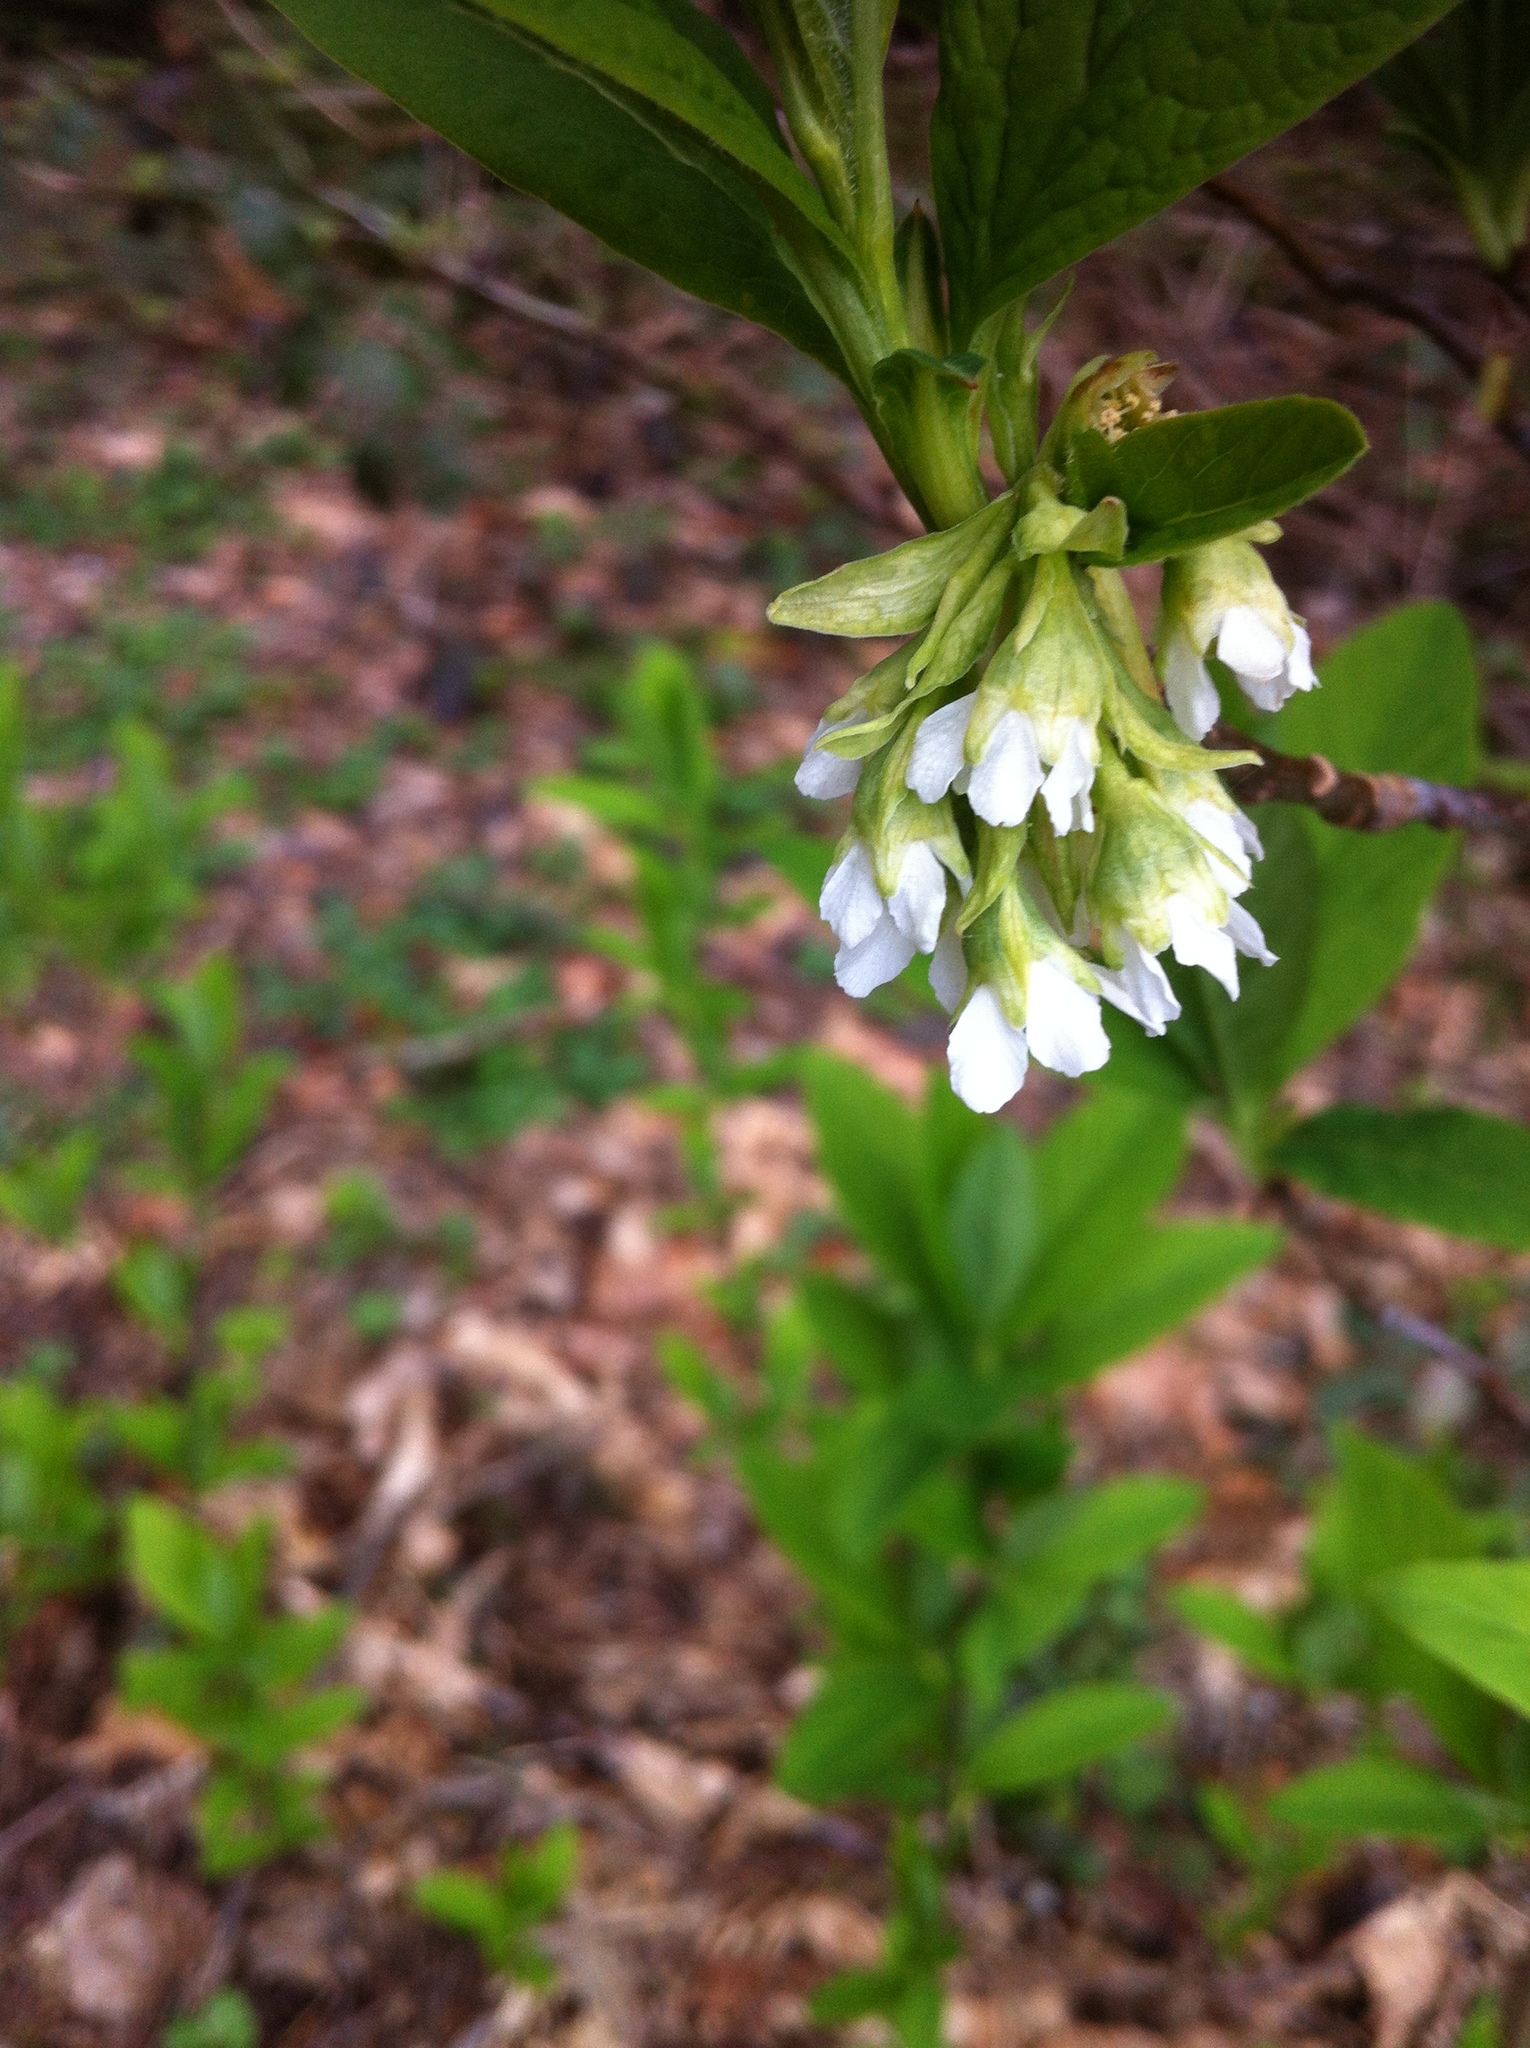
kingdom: Plantae
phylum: Tracheophyta
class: Magnoliopsida
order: Rosales
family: Rosaceae
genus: Oemleria
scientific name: Oemleria cerasiformis
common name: Osoberry
